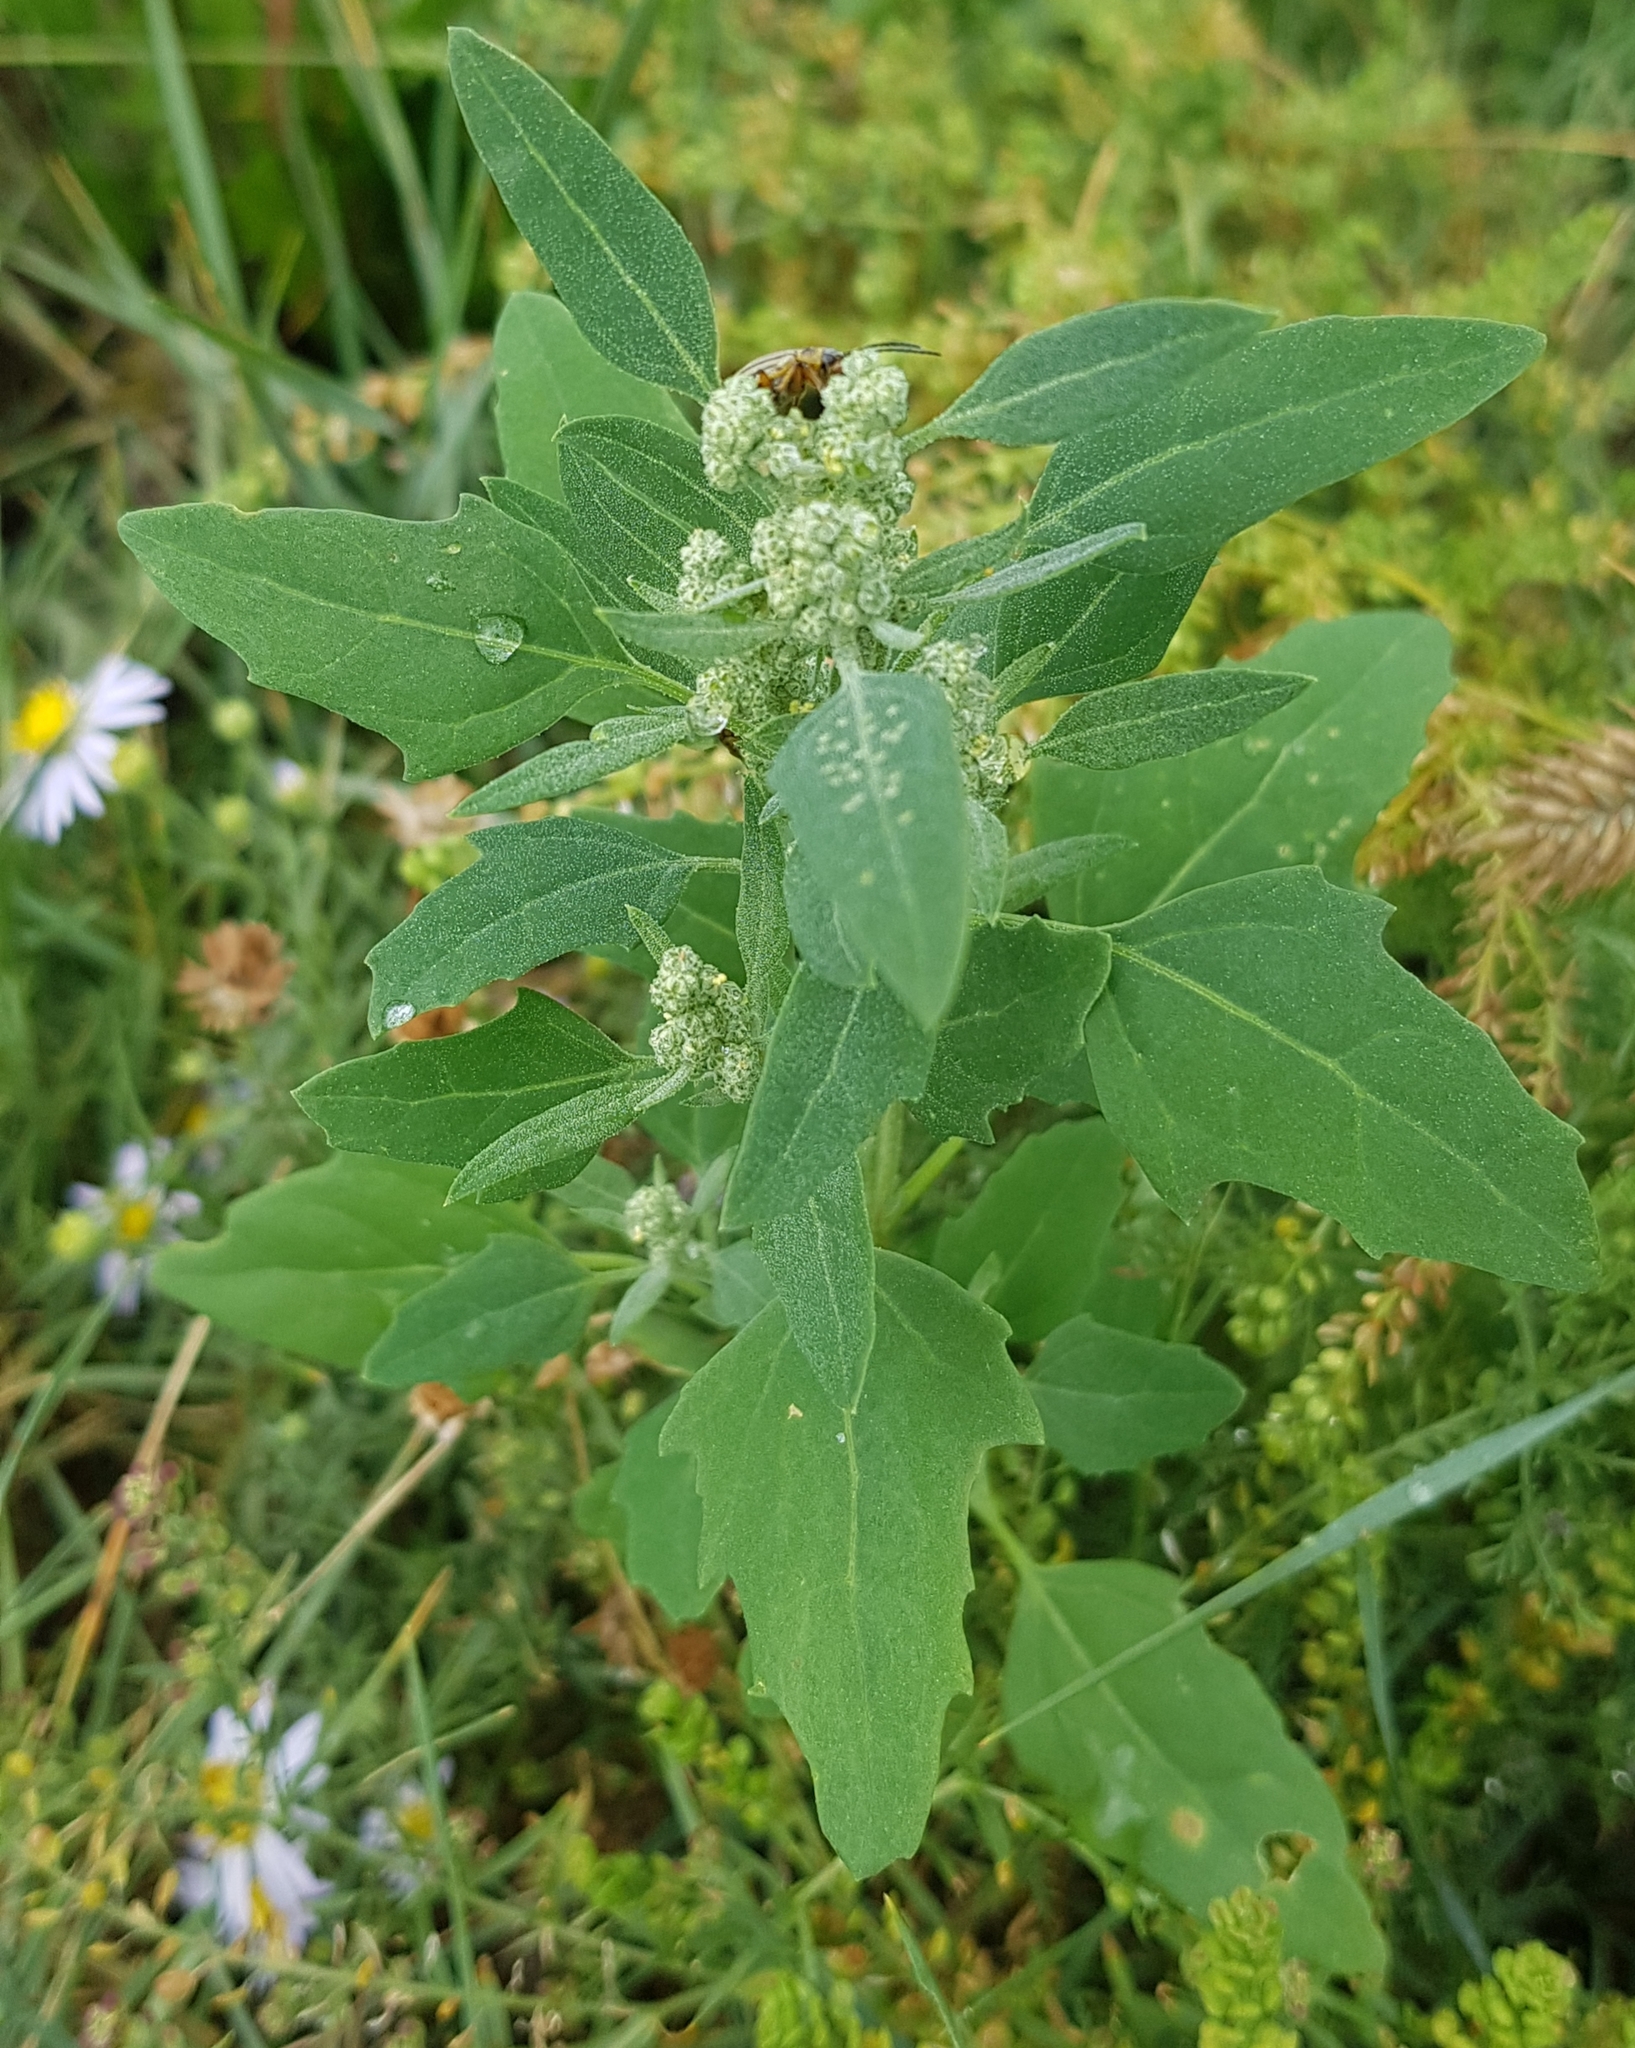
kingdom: Plantae
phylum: Tracheophyta
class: Magnoliopsida
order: Caryophyllales
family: Amaranthaceae
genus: Chenopodium
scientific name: Chenopodium album
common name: Fat-hen
